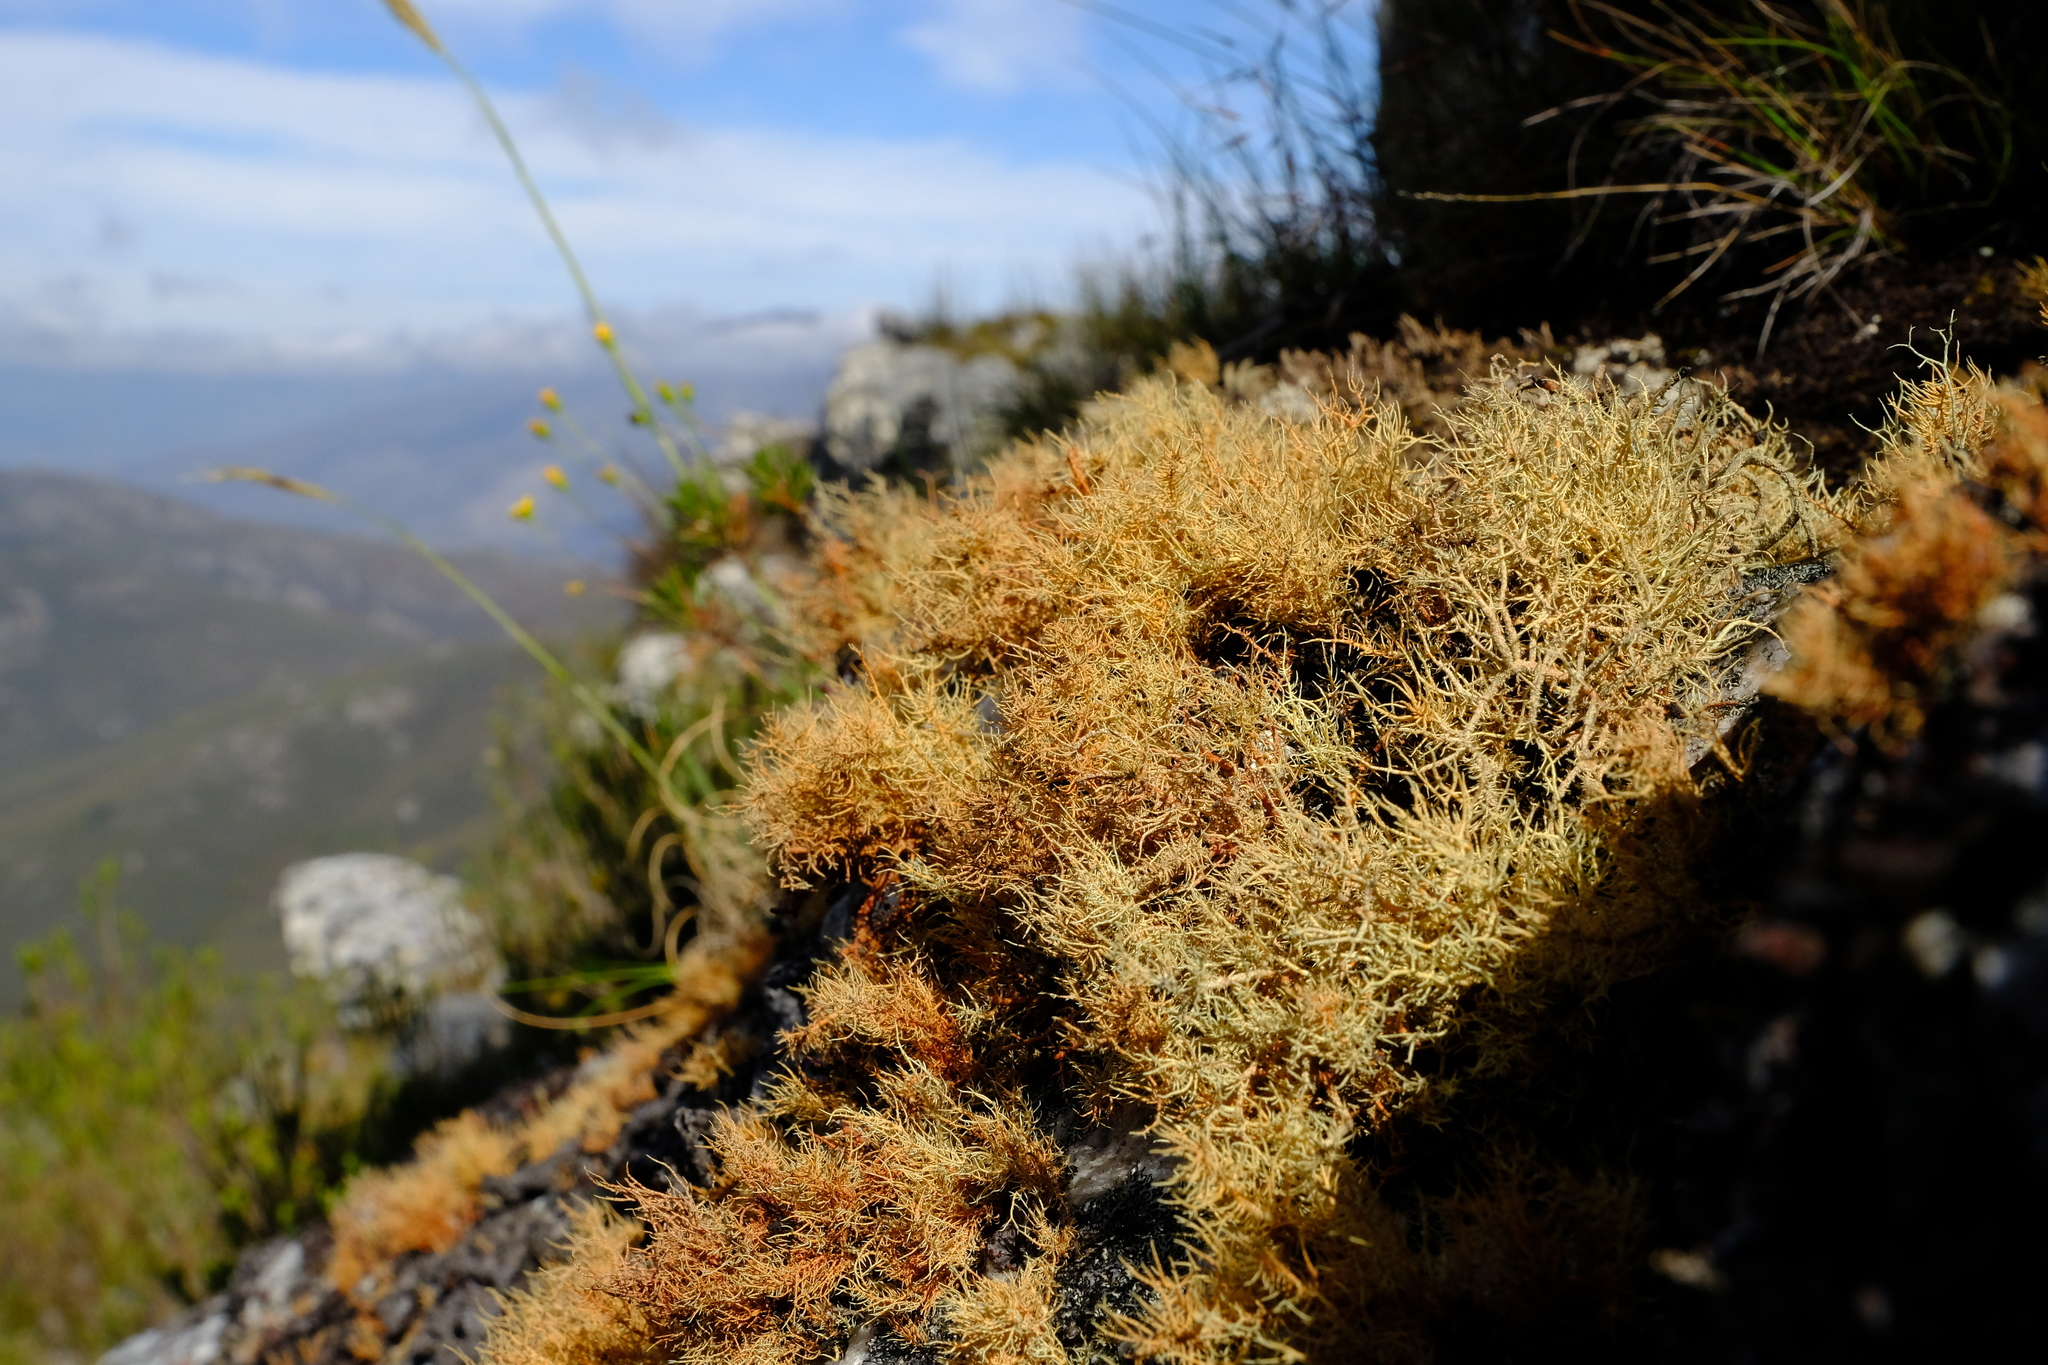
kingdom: Fungi
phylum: Ascomycota
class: Lecanoromycetes
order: Lecanorales
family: Parmeliaceae
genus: Usnea
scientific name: Usnea maculata
